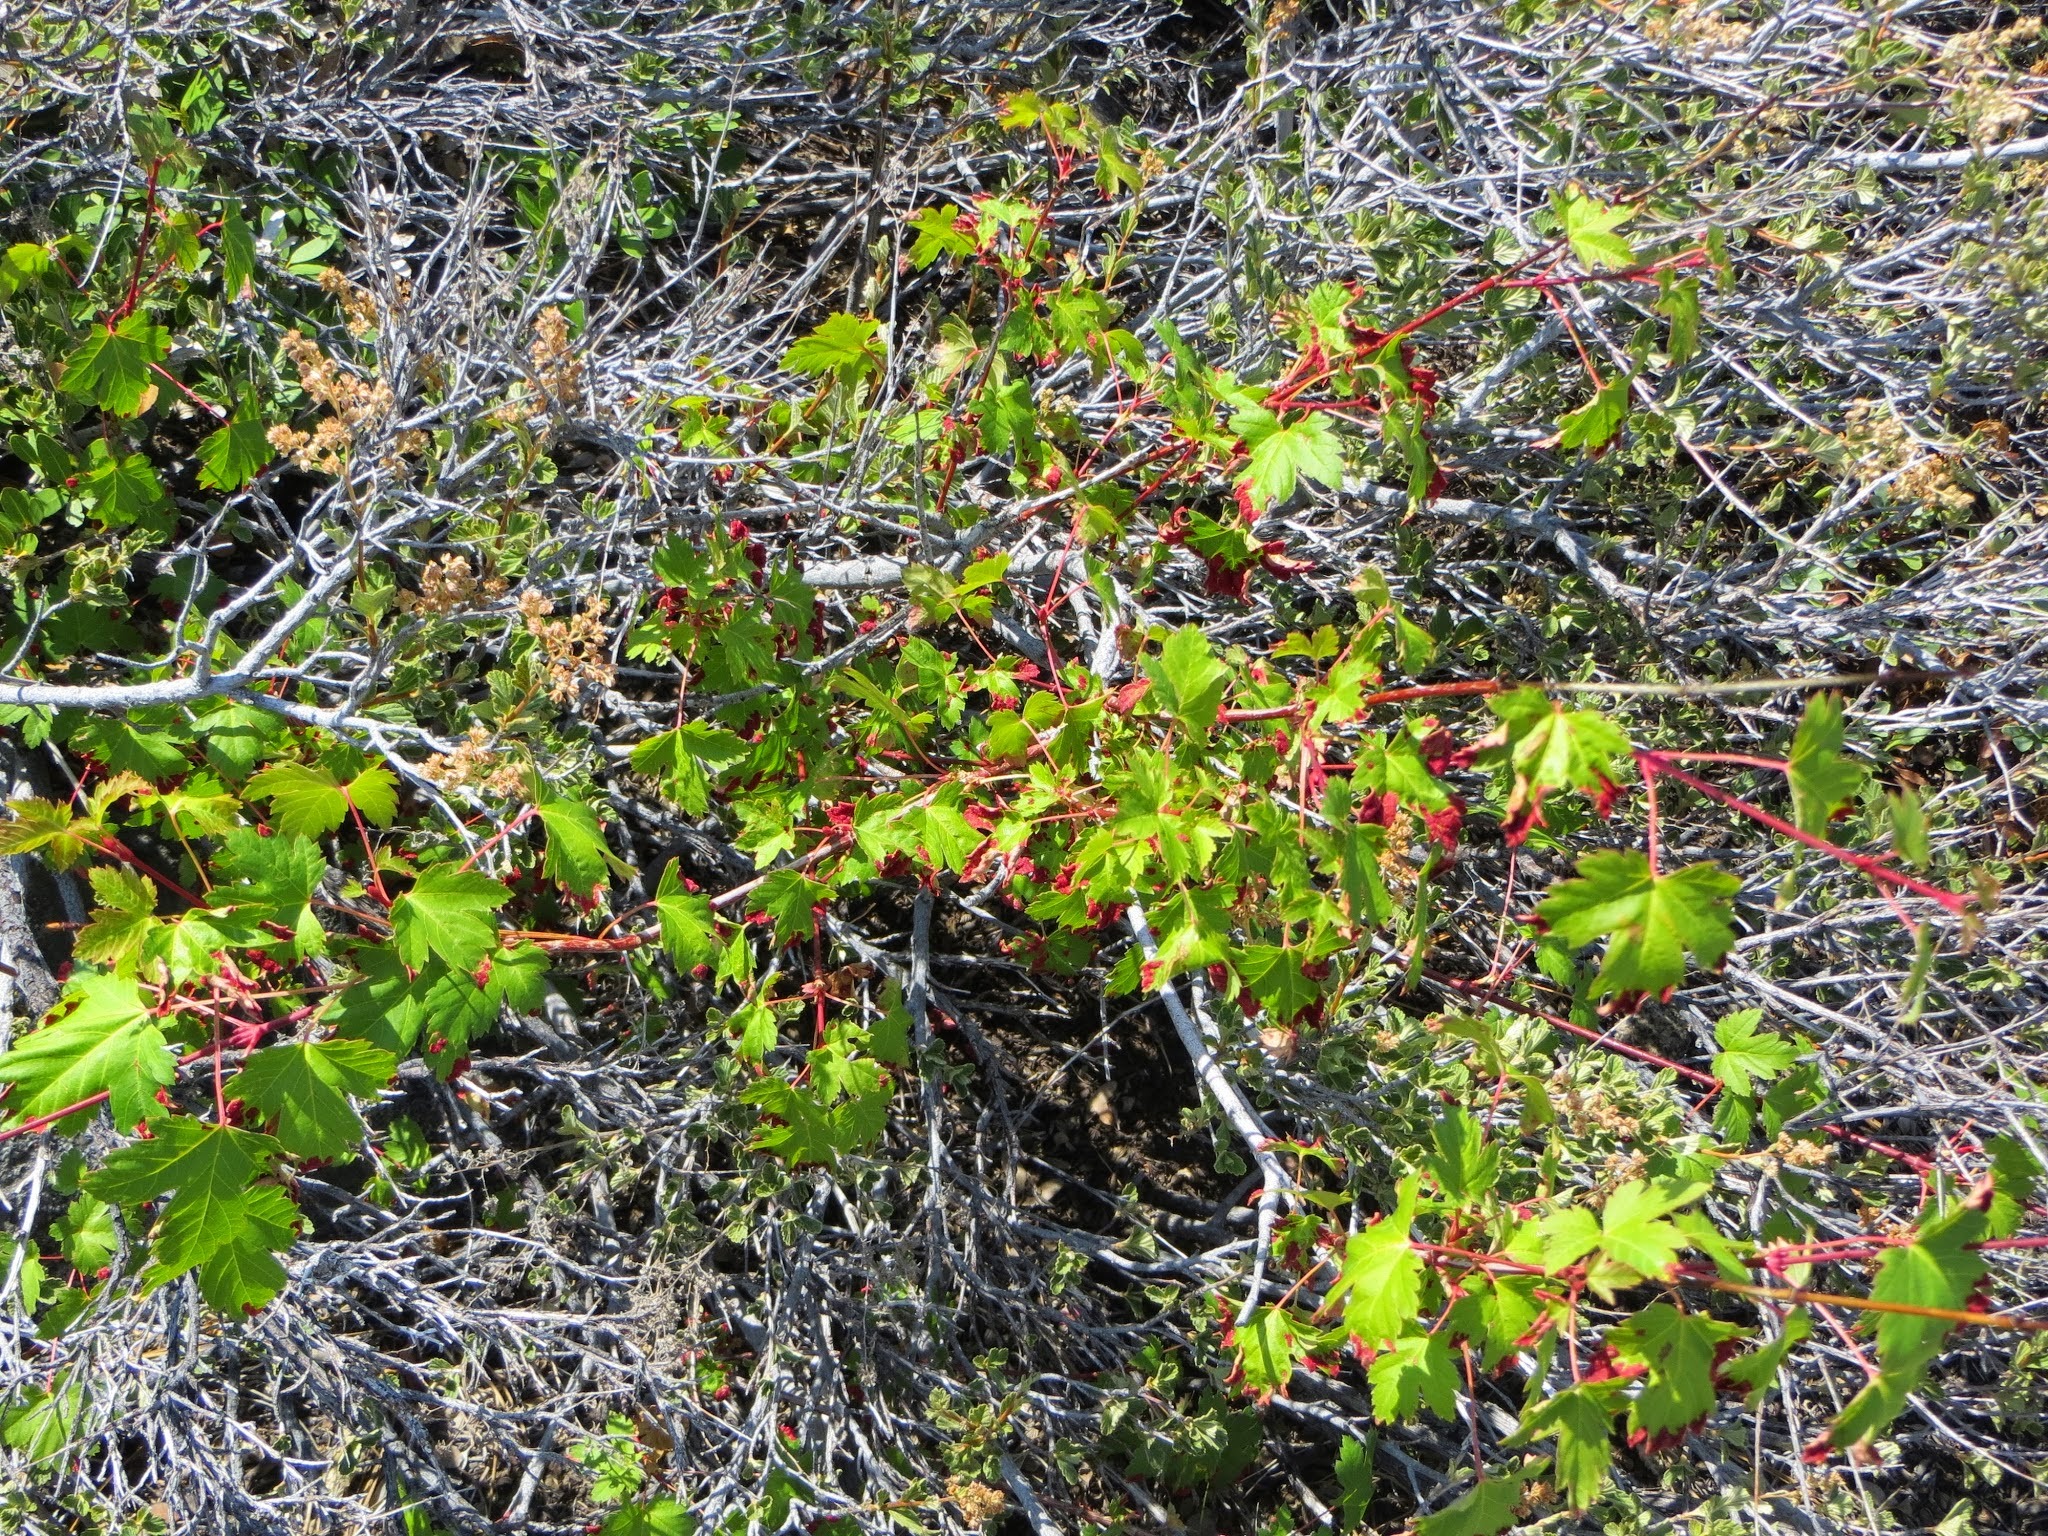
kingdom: Plantae
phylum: Tracheophyta
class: Magnoliopsida
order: Sapindales
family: Sapindaceae
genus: Acer
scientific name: Acer glabrum
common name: Rocky mountain maple
